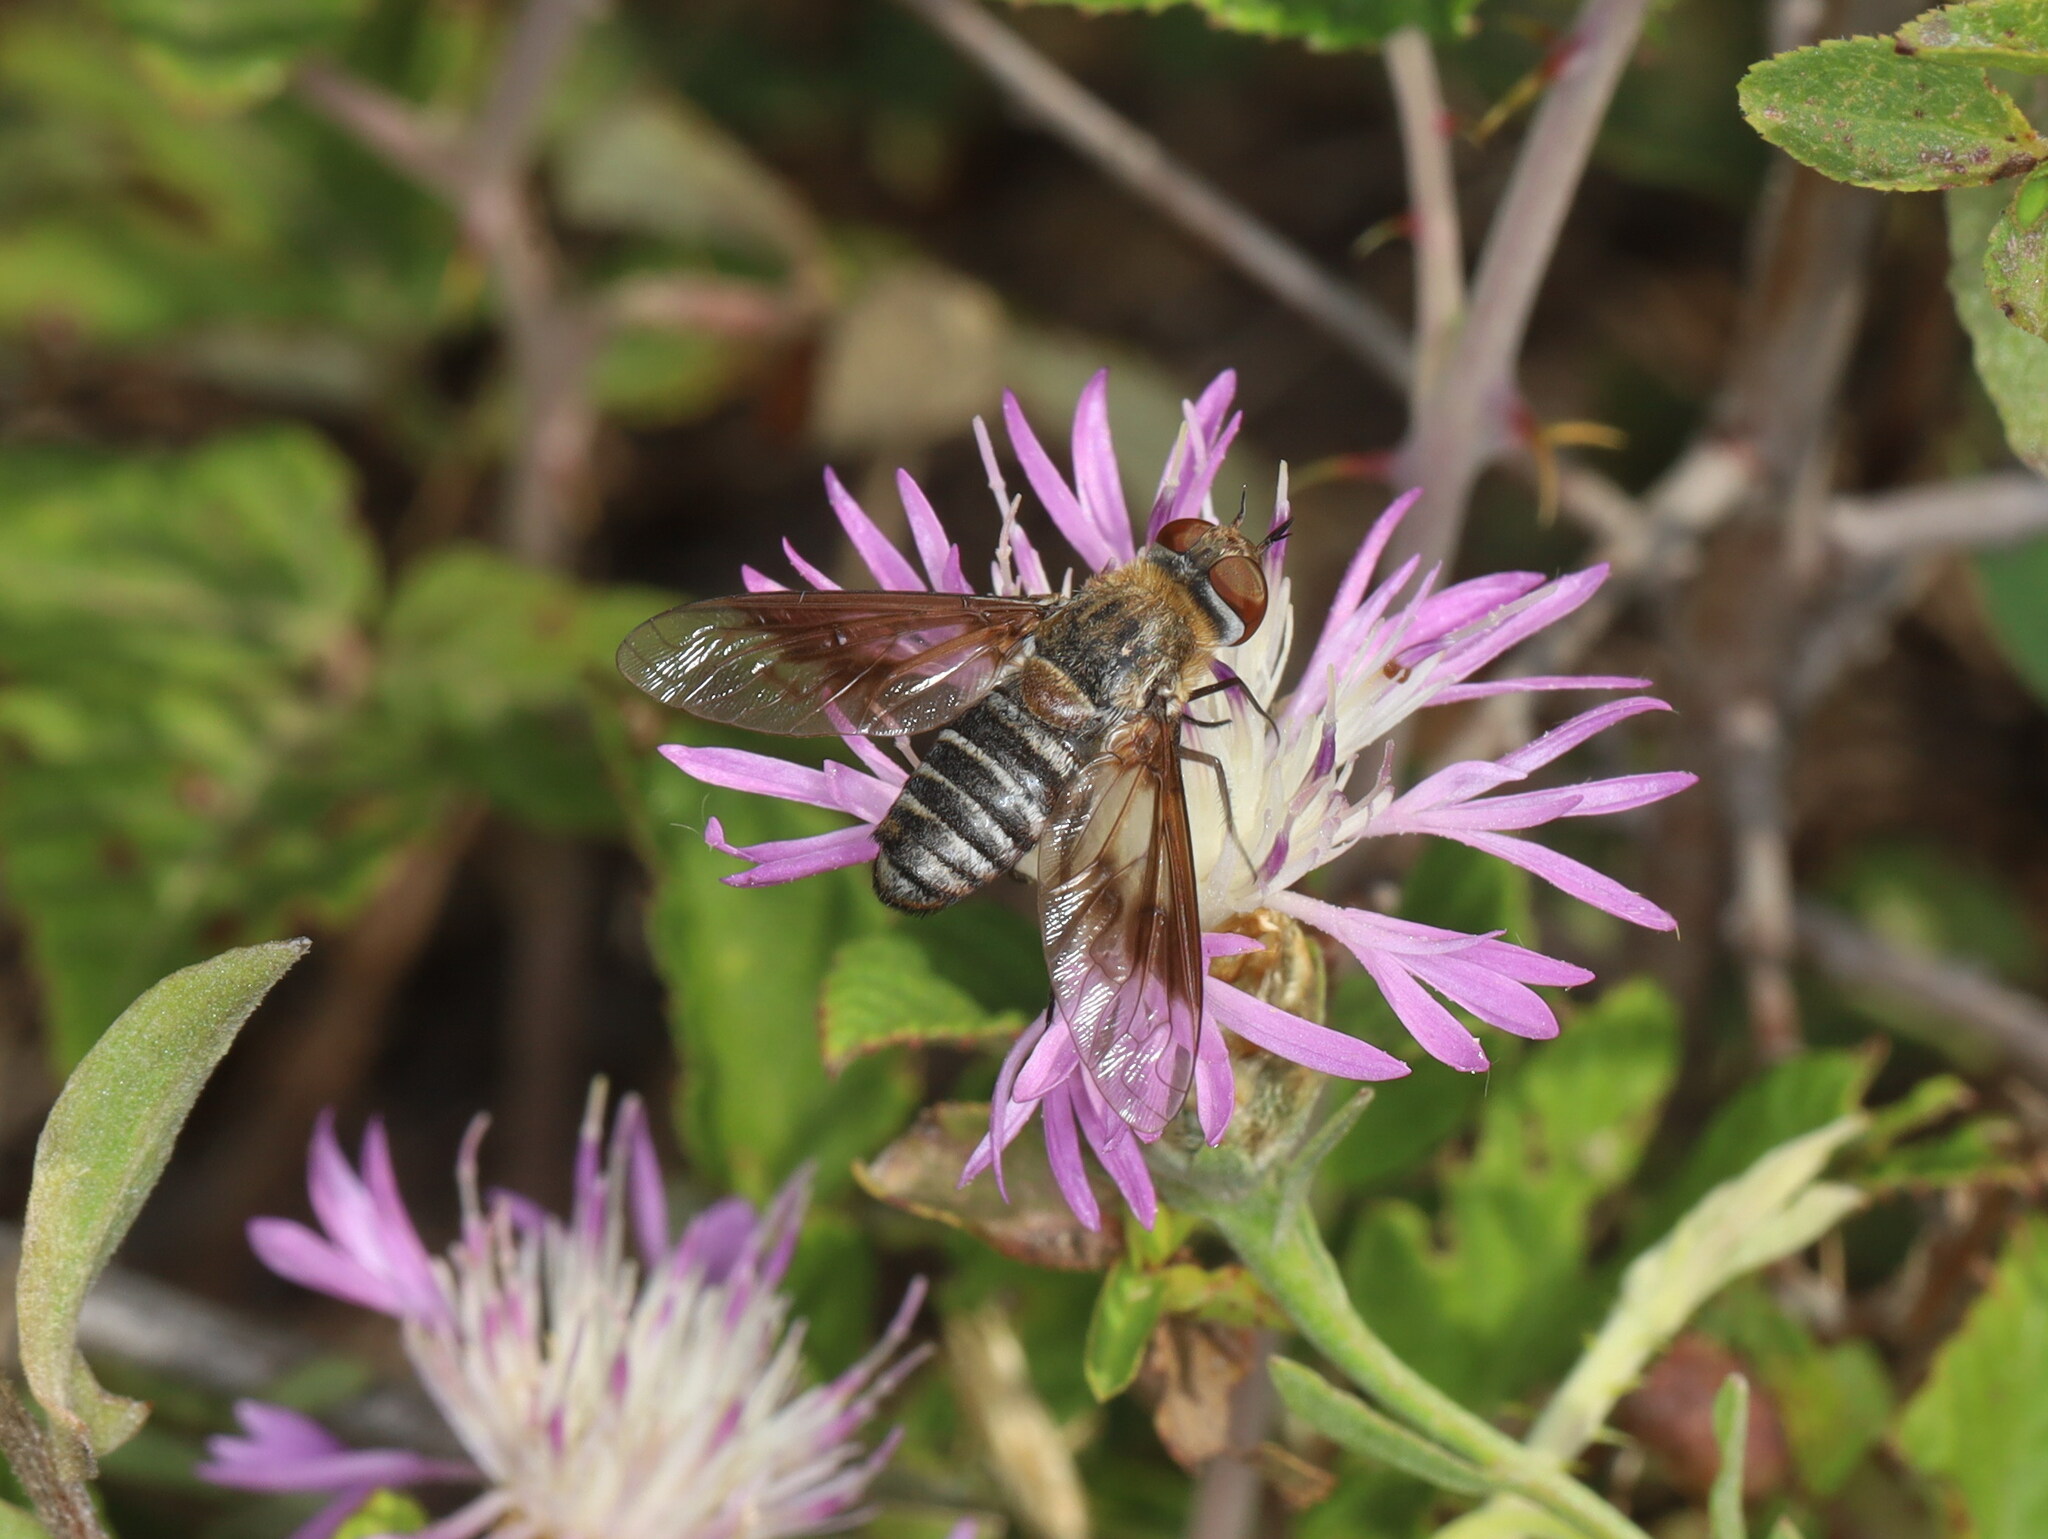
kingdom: Animalia
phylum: Arthropoda
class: Insecta
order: Diptera
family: Bombyliidae
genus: Exoprosopa
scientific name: Exoprosopa rivularis
